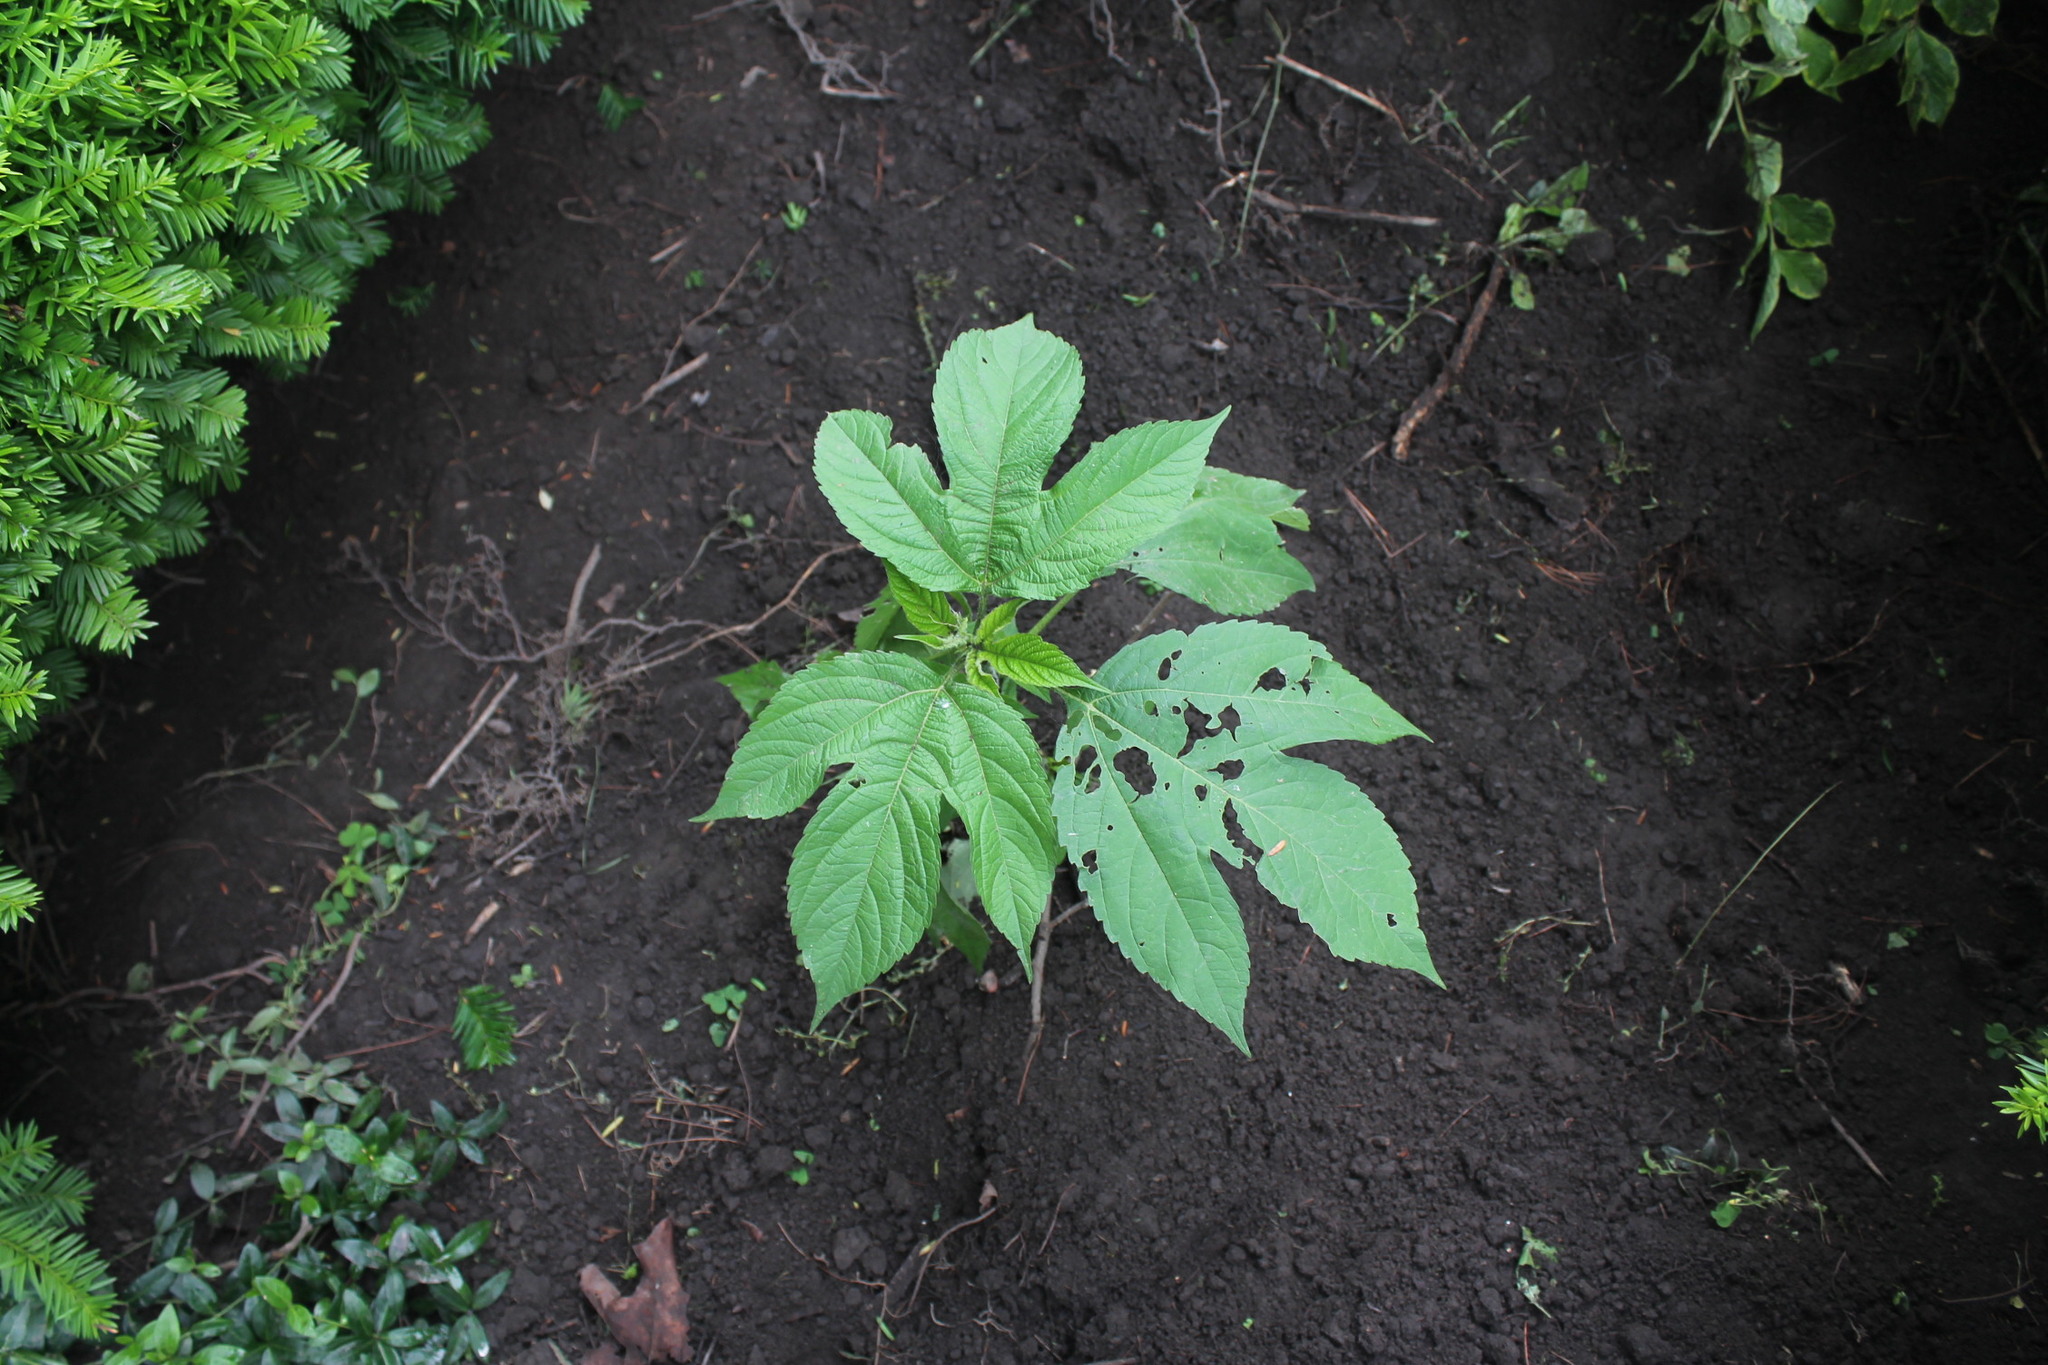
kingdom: Plantae
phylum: Tracheophyta
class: Magnoliopsida
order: Asterales
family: Asteraceae
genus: Ambrosia
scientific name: Ambrosia trifida
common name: Giant ragweed
